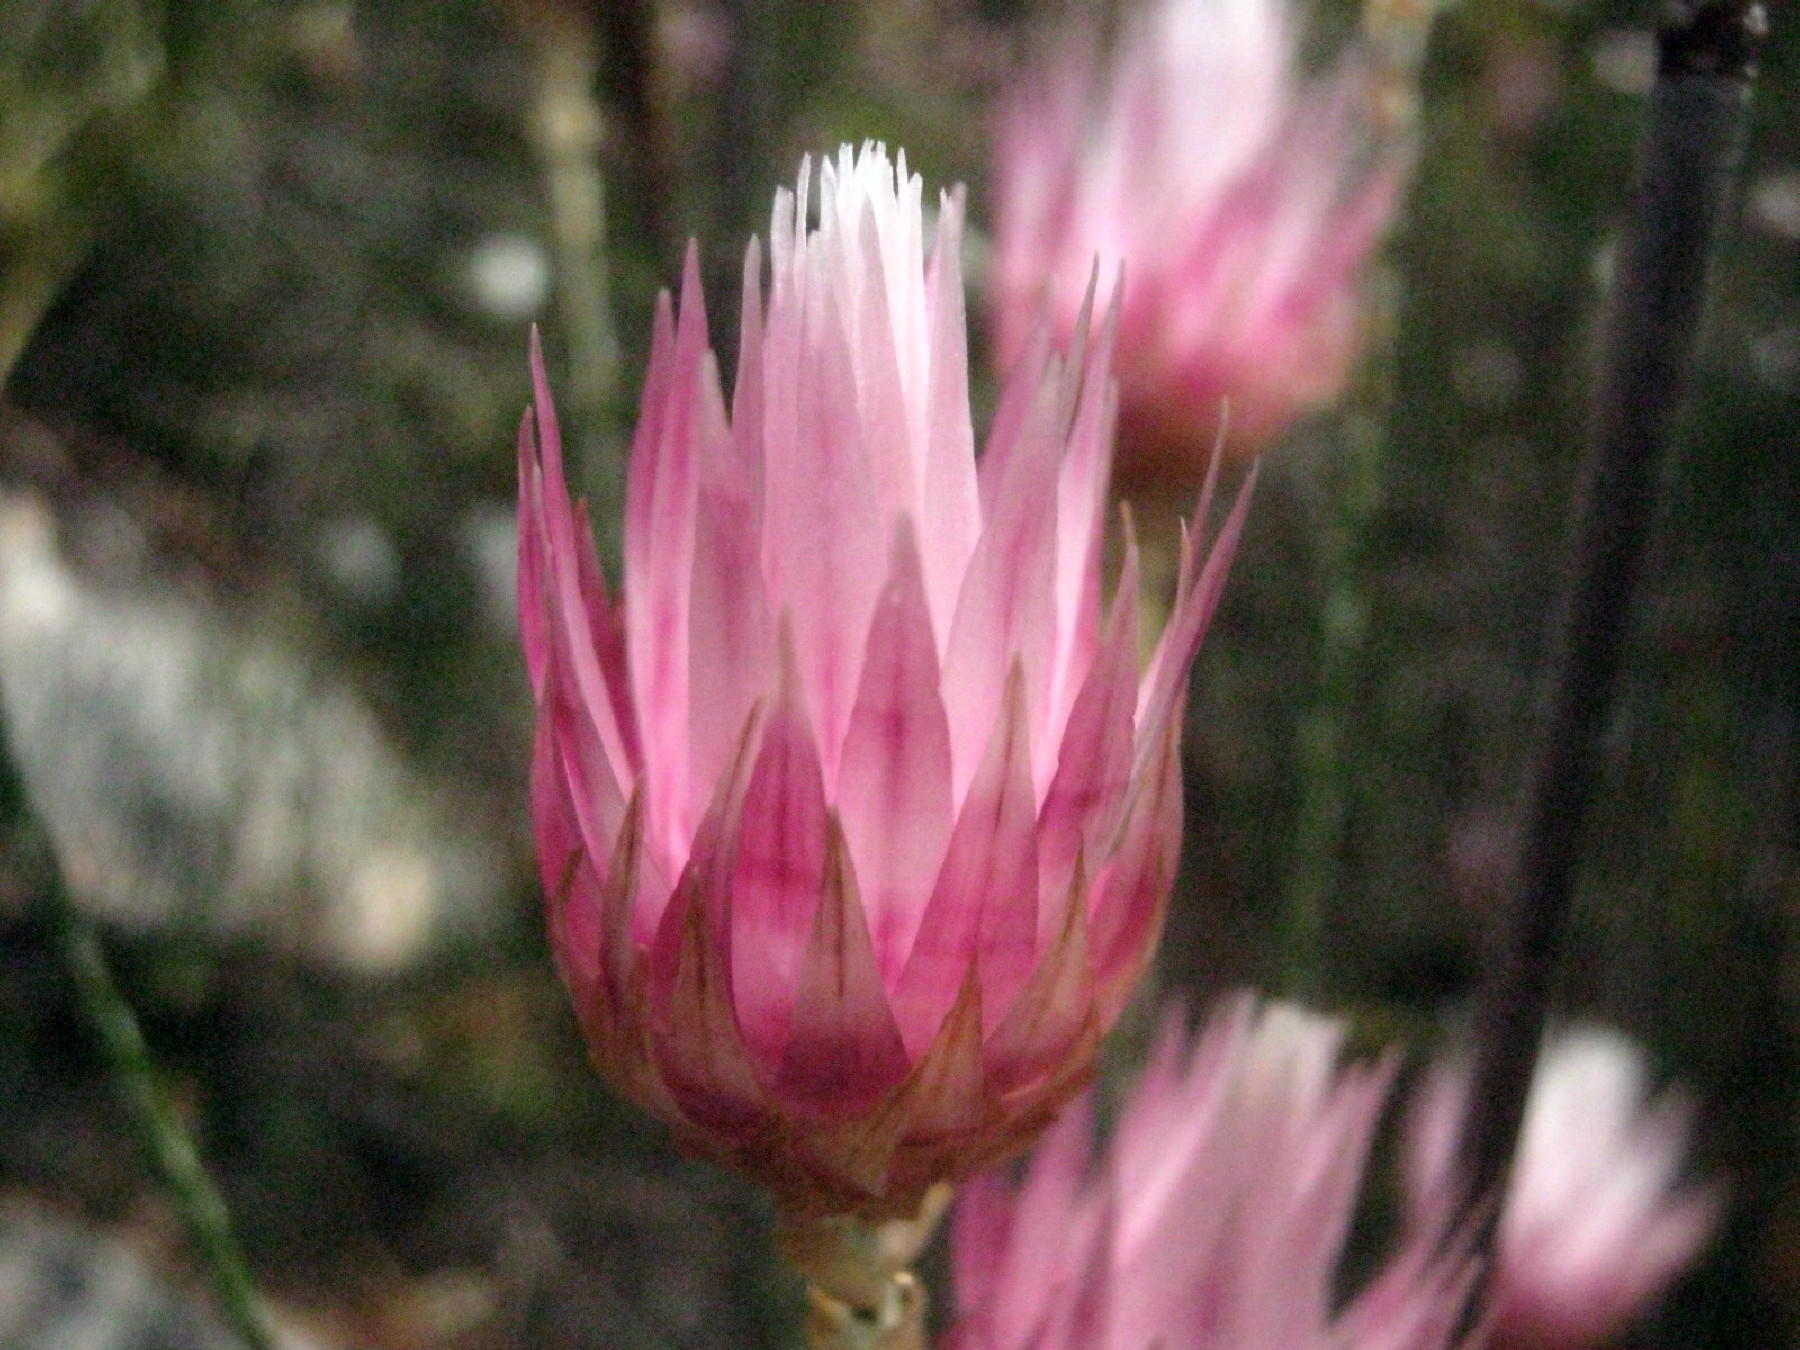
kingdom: Plantae
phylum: Tracheophyta
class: Magnoliopsida
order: Asterales
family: Asteraceae
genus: Syncarpha
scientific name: Syncarpha canescens
